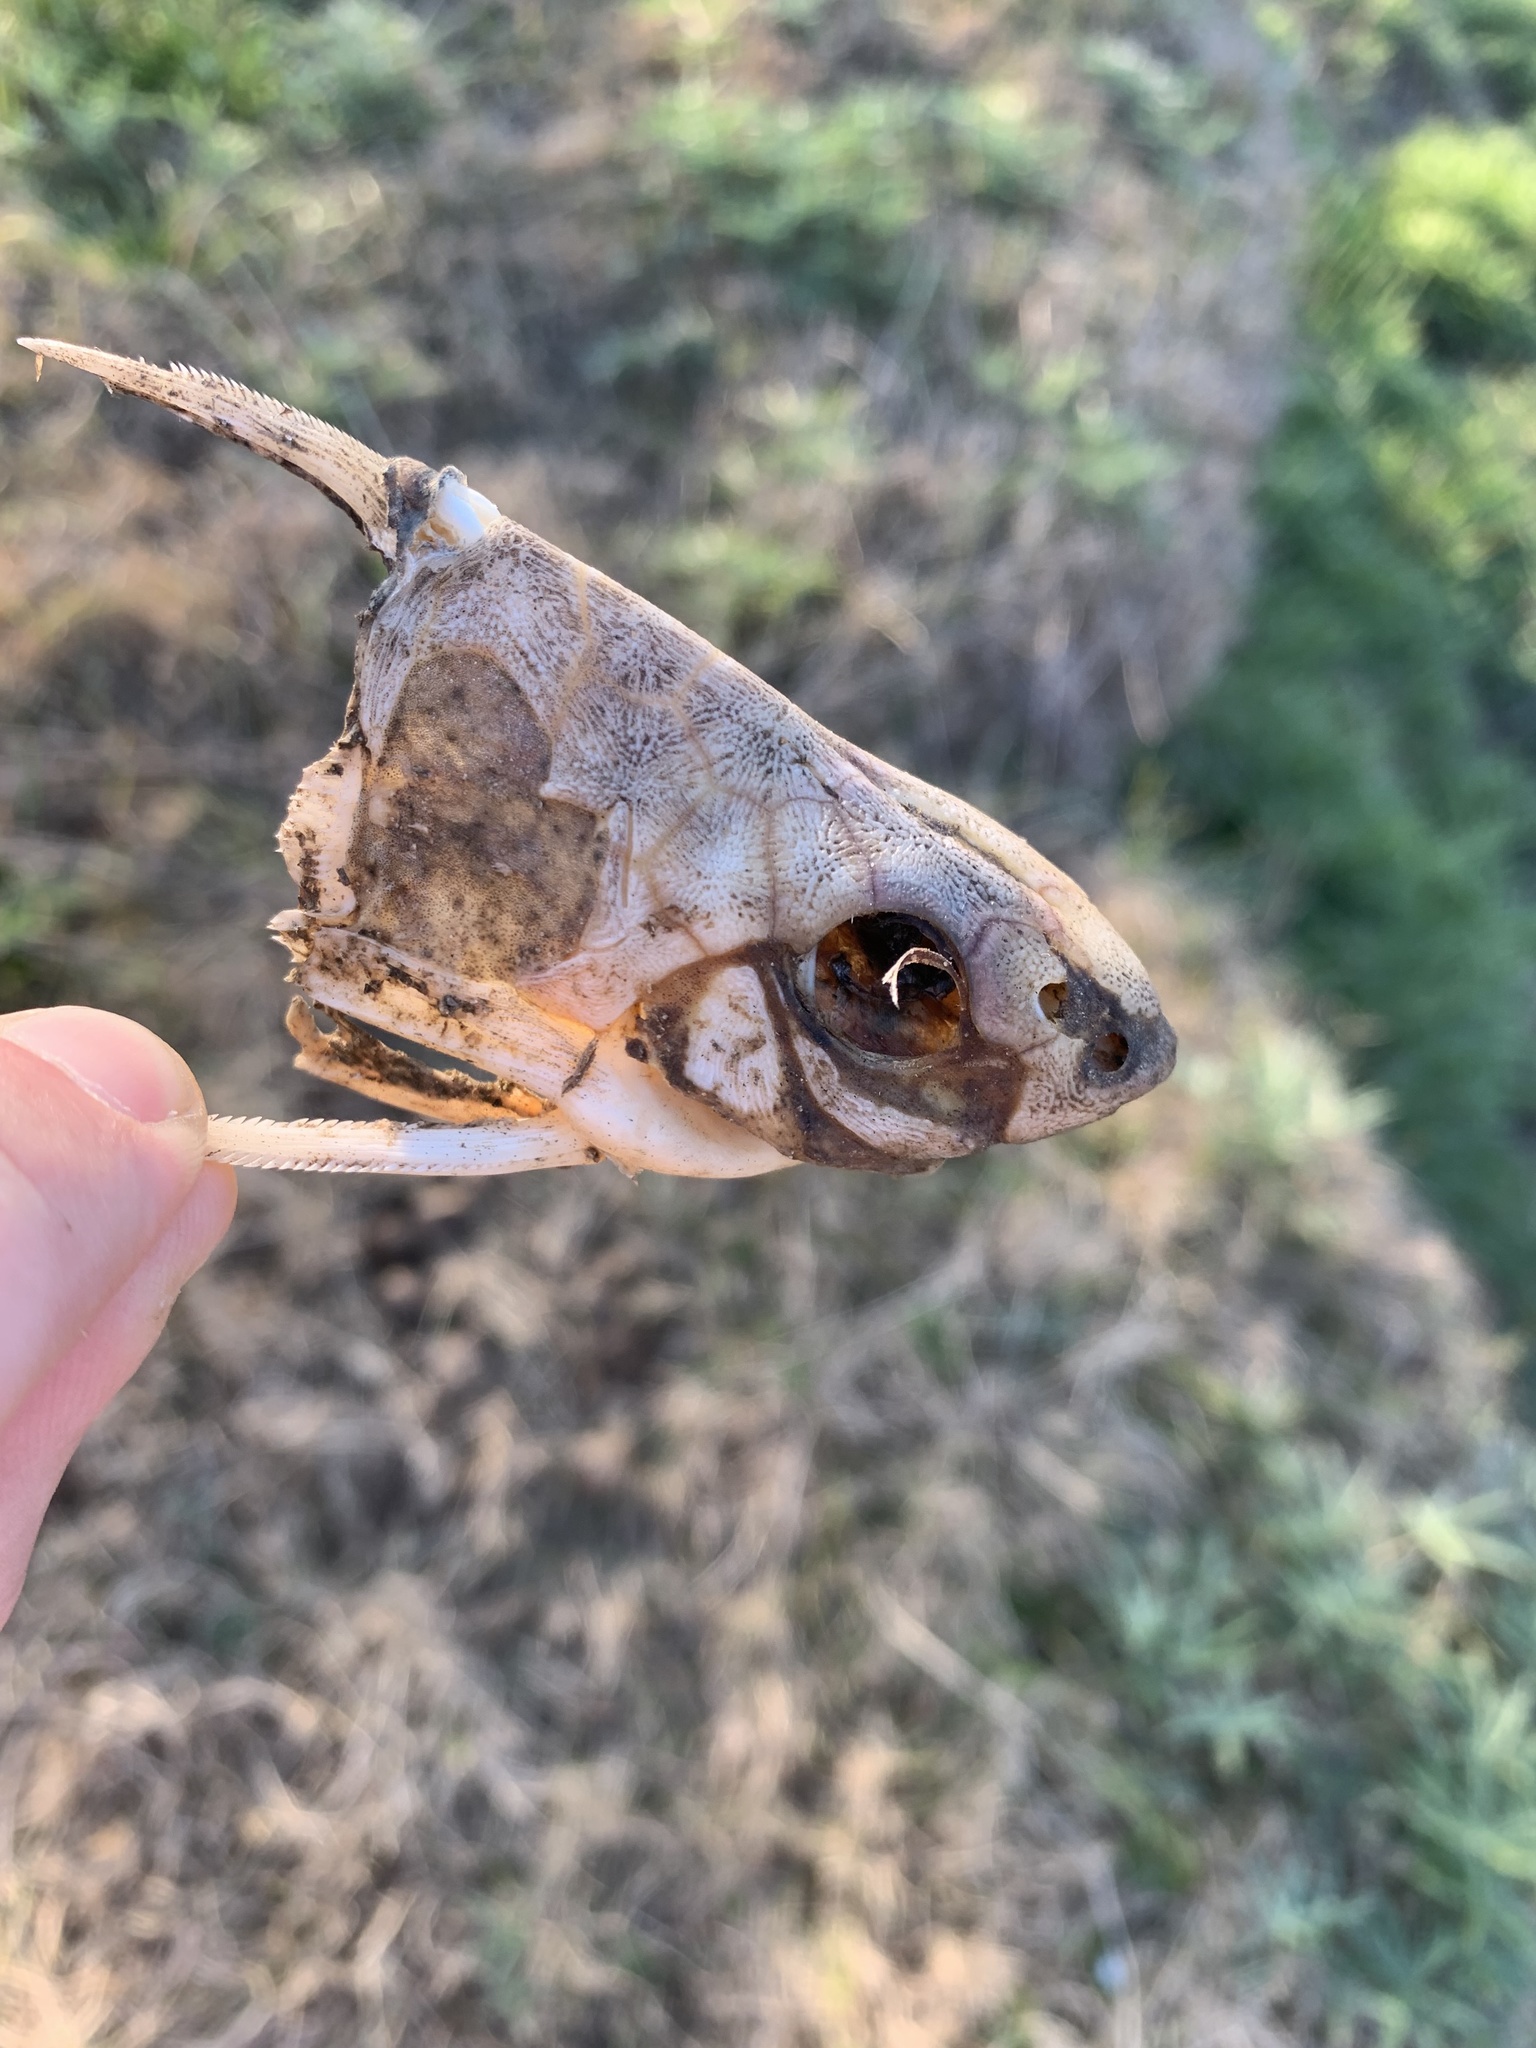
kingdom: Animalia
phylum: Chordata
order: Siluriformes
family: Doradidae
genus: Trachydoras
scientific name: Trachydoras paraguayensis
